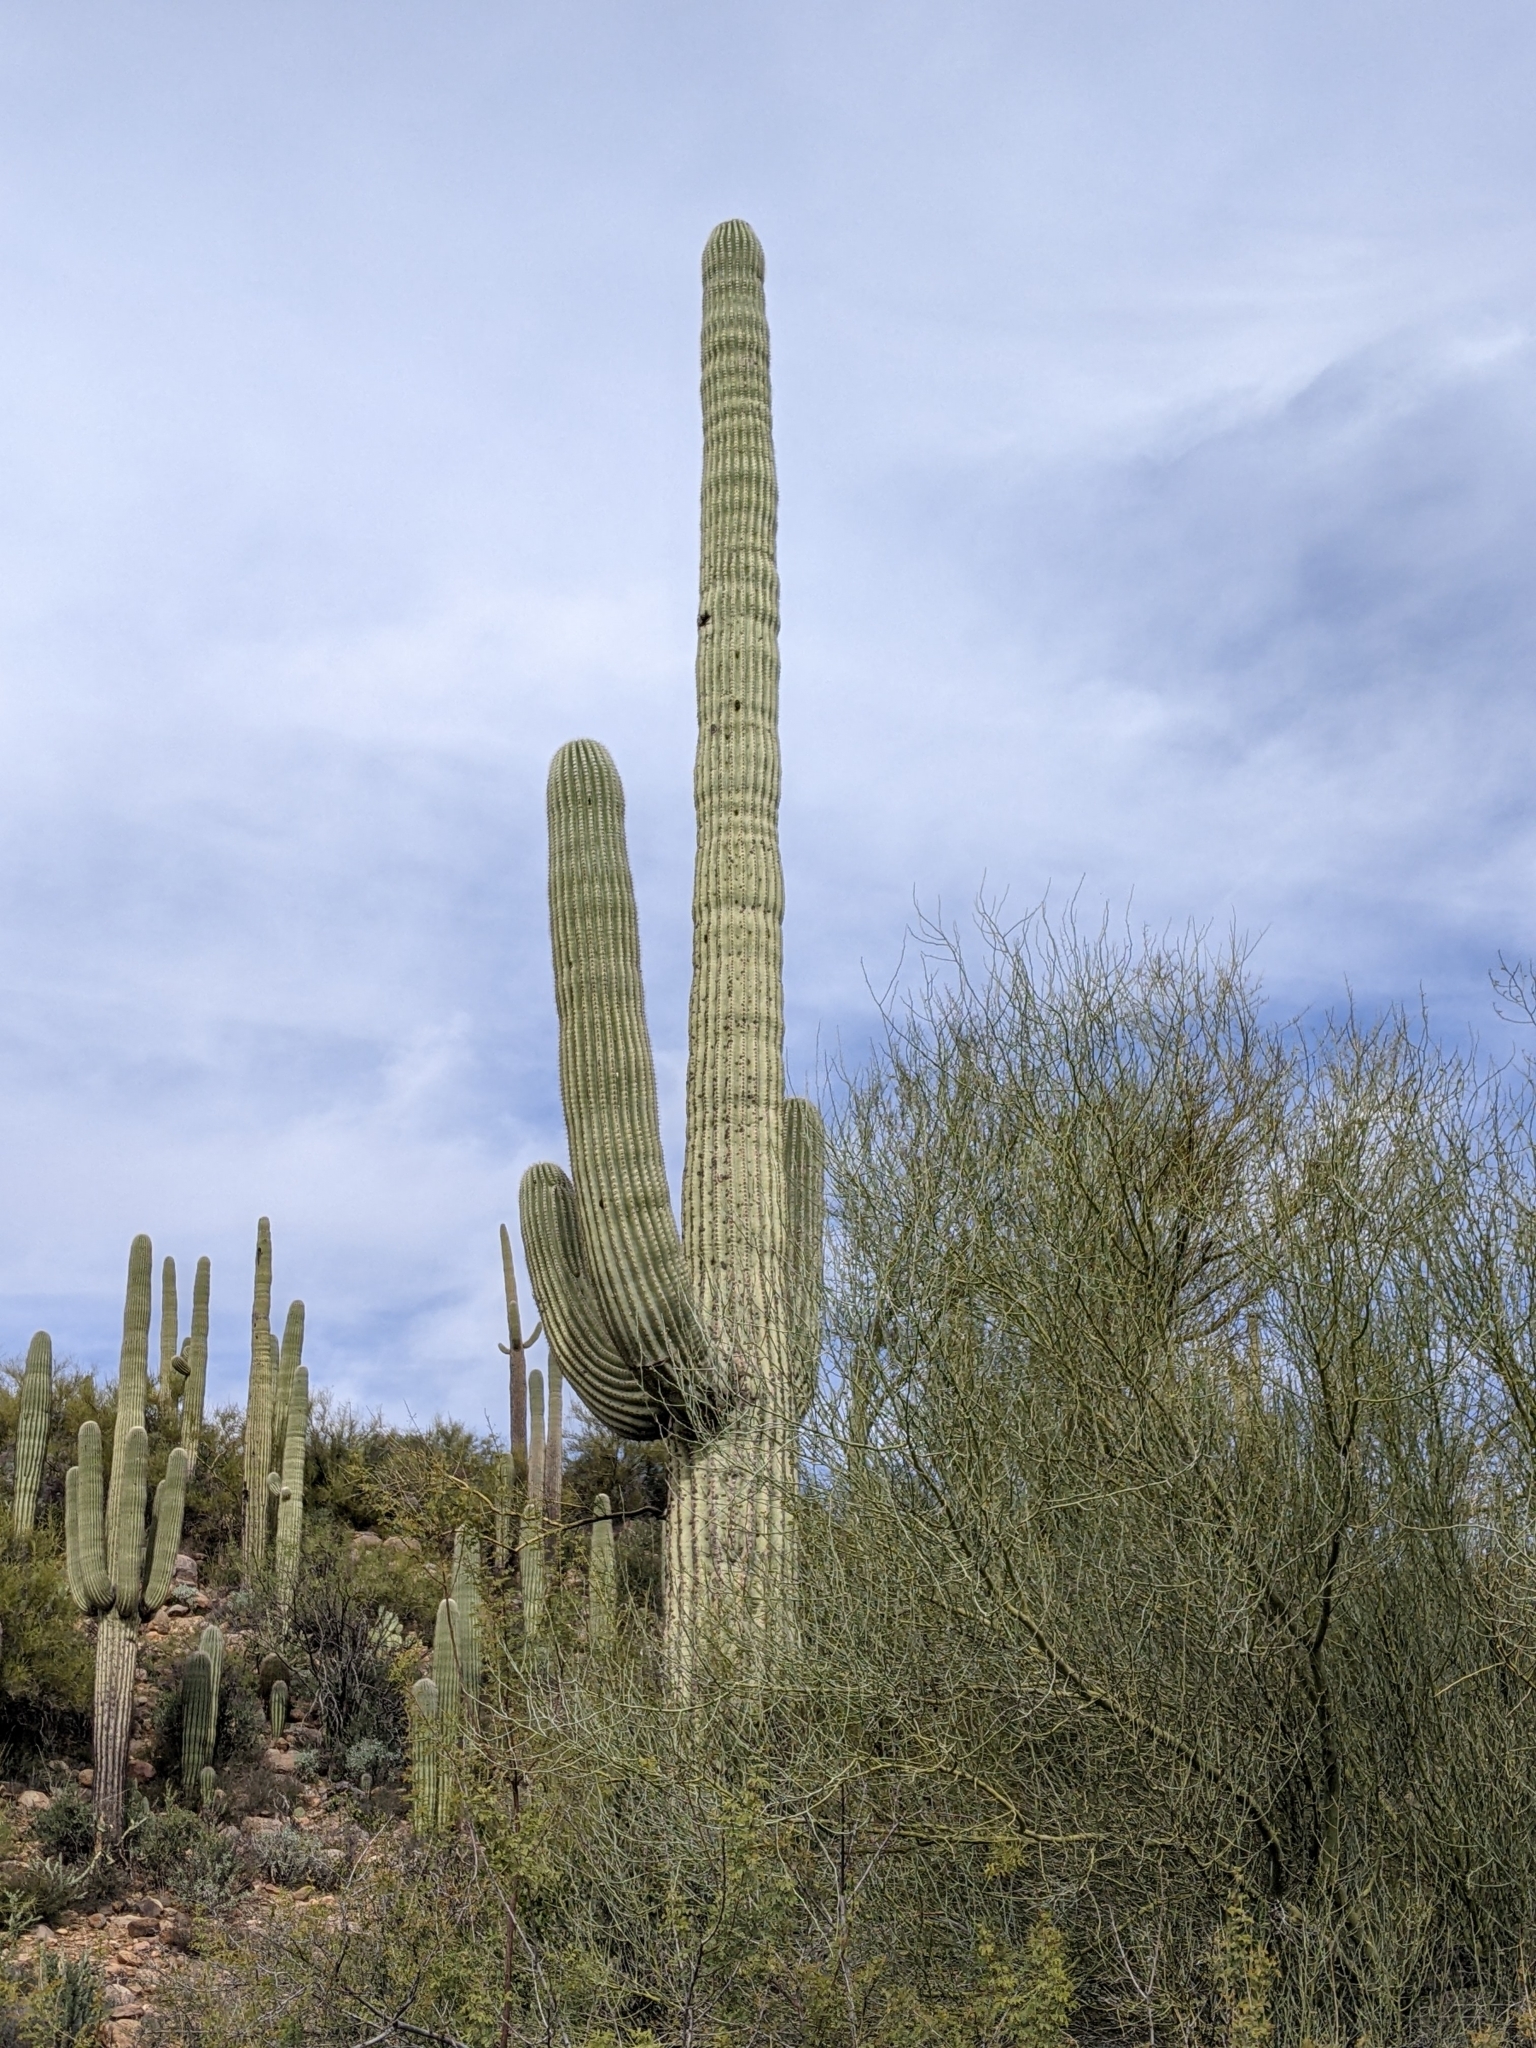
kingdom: Plantae
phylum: Tracheophyta
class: Magnoliopsida
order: Caryophyllales
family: Cactaceae
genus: Carnegiea
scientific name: Carnegiea gigantea
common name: Saguaro
